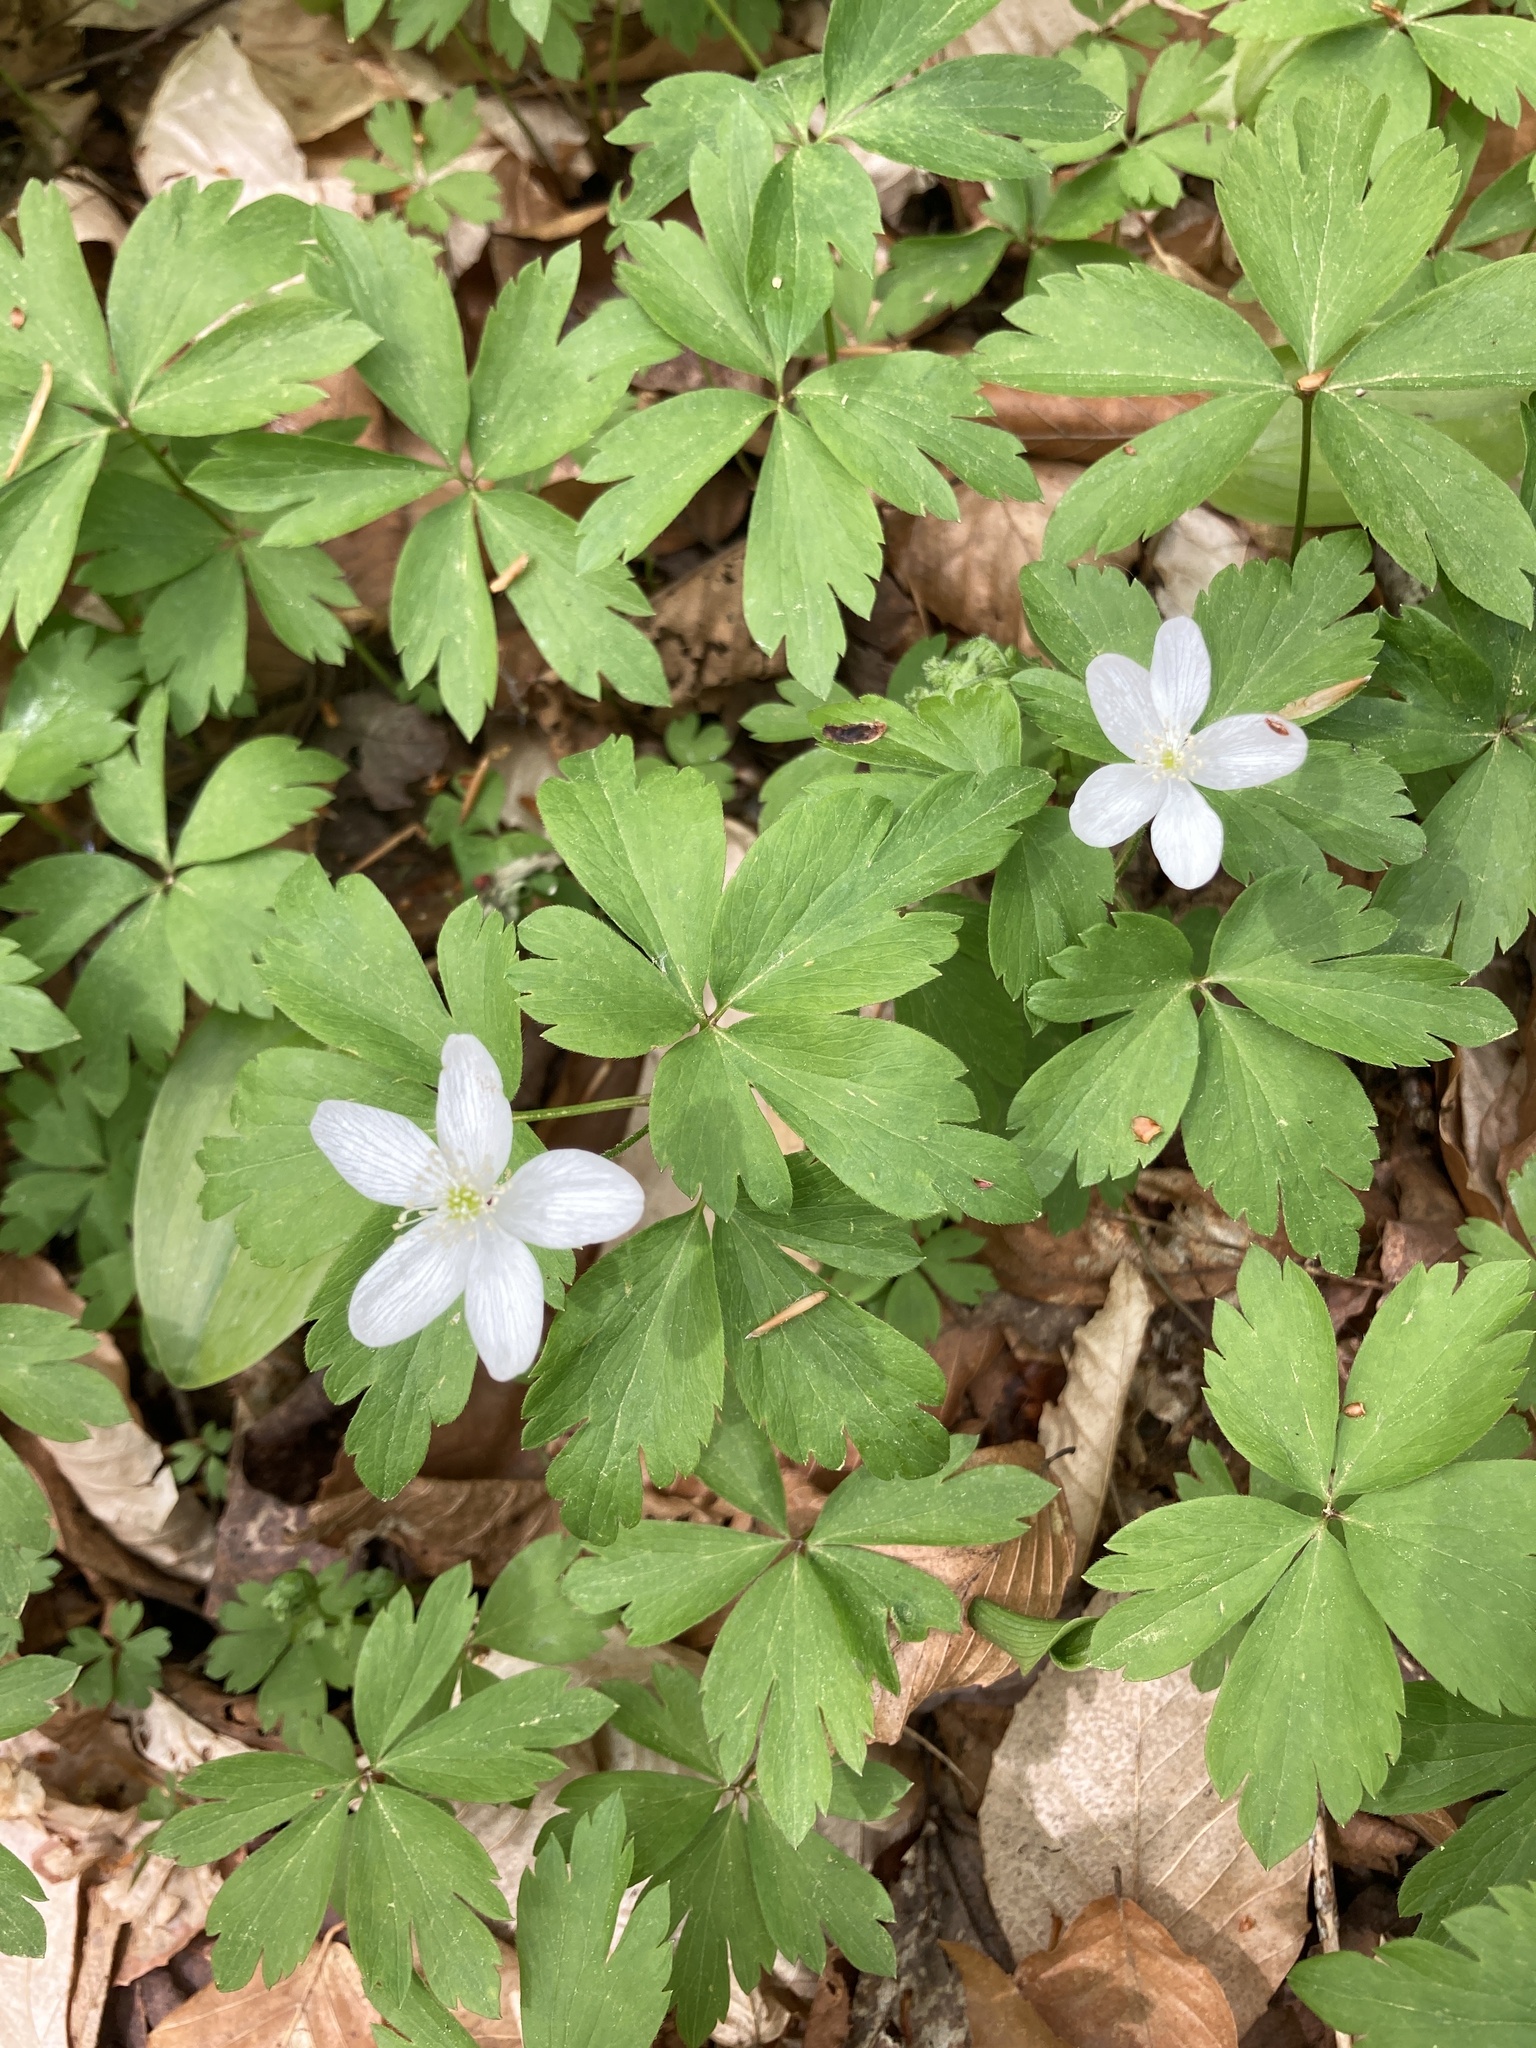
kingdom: Plantae
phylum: Tracheophyta
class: Magnoliopsida
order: Ranunculales
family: Ranunculaceae
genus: Anemone
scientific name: Anemone quinquefolia
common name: Wood anemone
